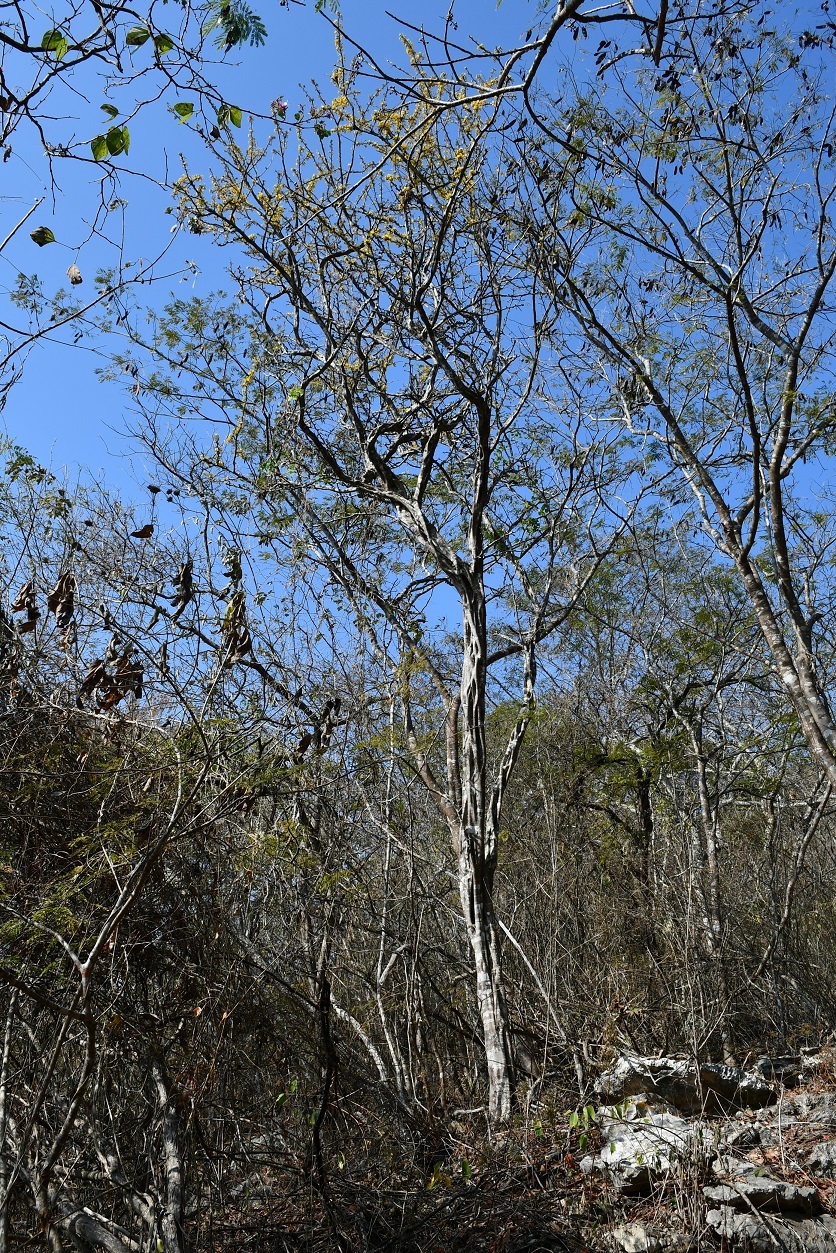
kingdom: Plantae
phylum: Tracheophyta
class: Magnoliopsida
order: Fabales
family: Fabaceae
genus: Haematoxylum
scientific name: Haematoxylum brasiletto
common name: Peachwood
